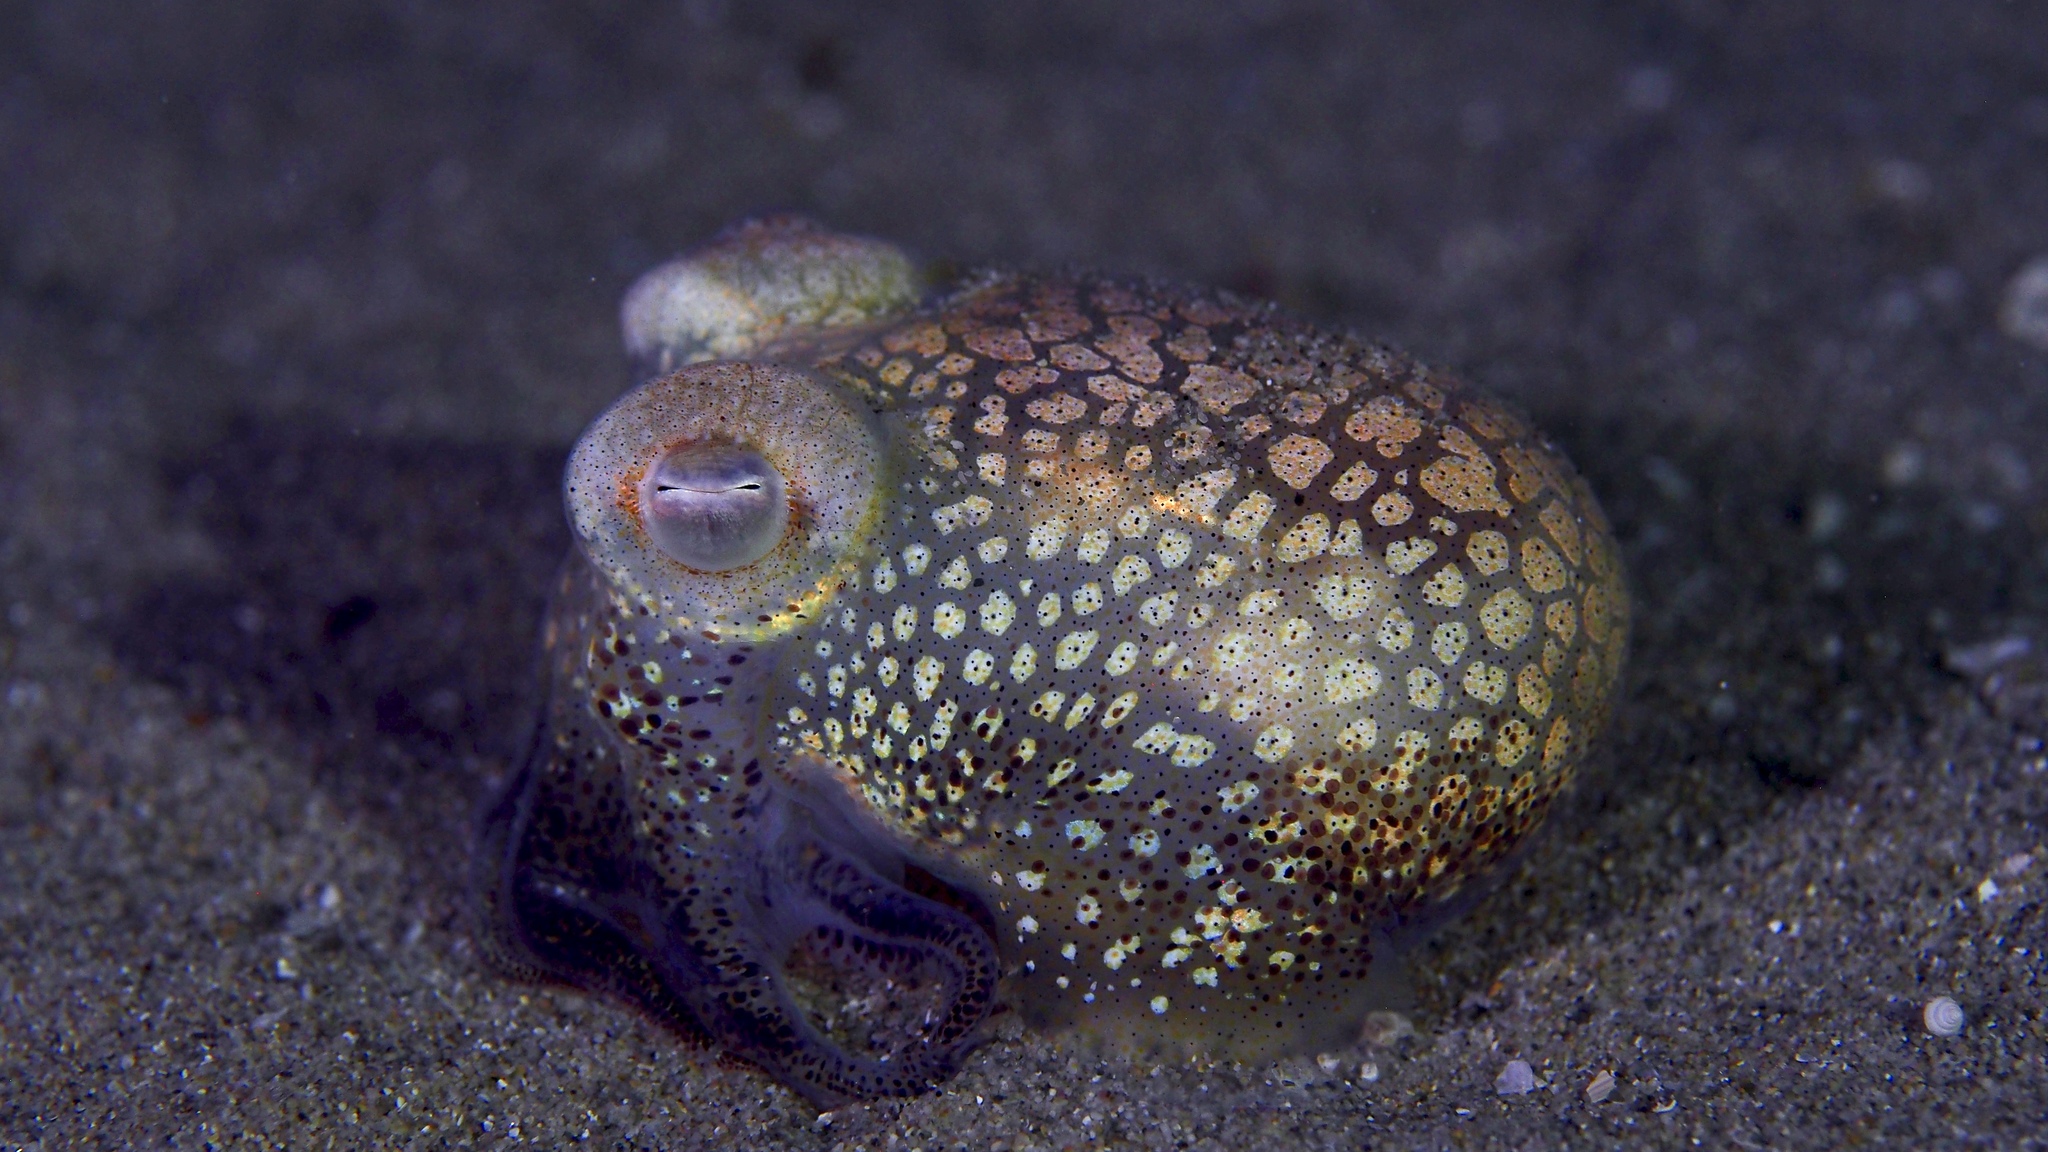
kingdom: Animalia
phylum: Mollusca
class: Cephalopoda
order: Sepiida
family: Sepiolidae
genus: Euprymna
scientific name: Euprymna tasmanica
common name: Southern bobtail squid
